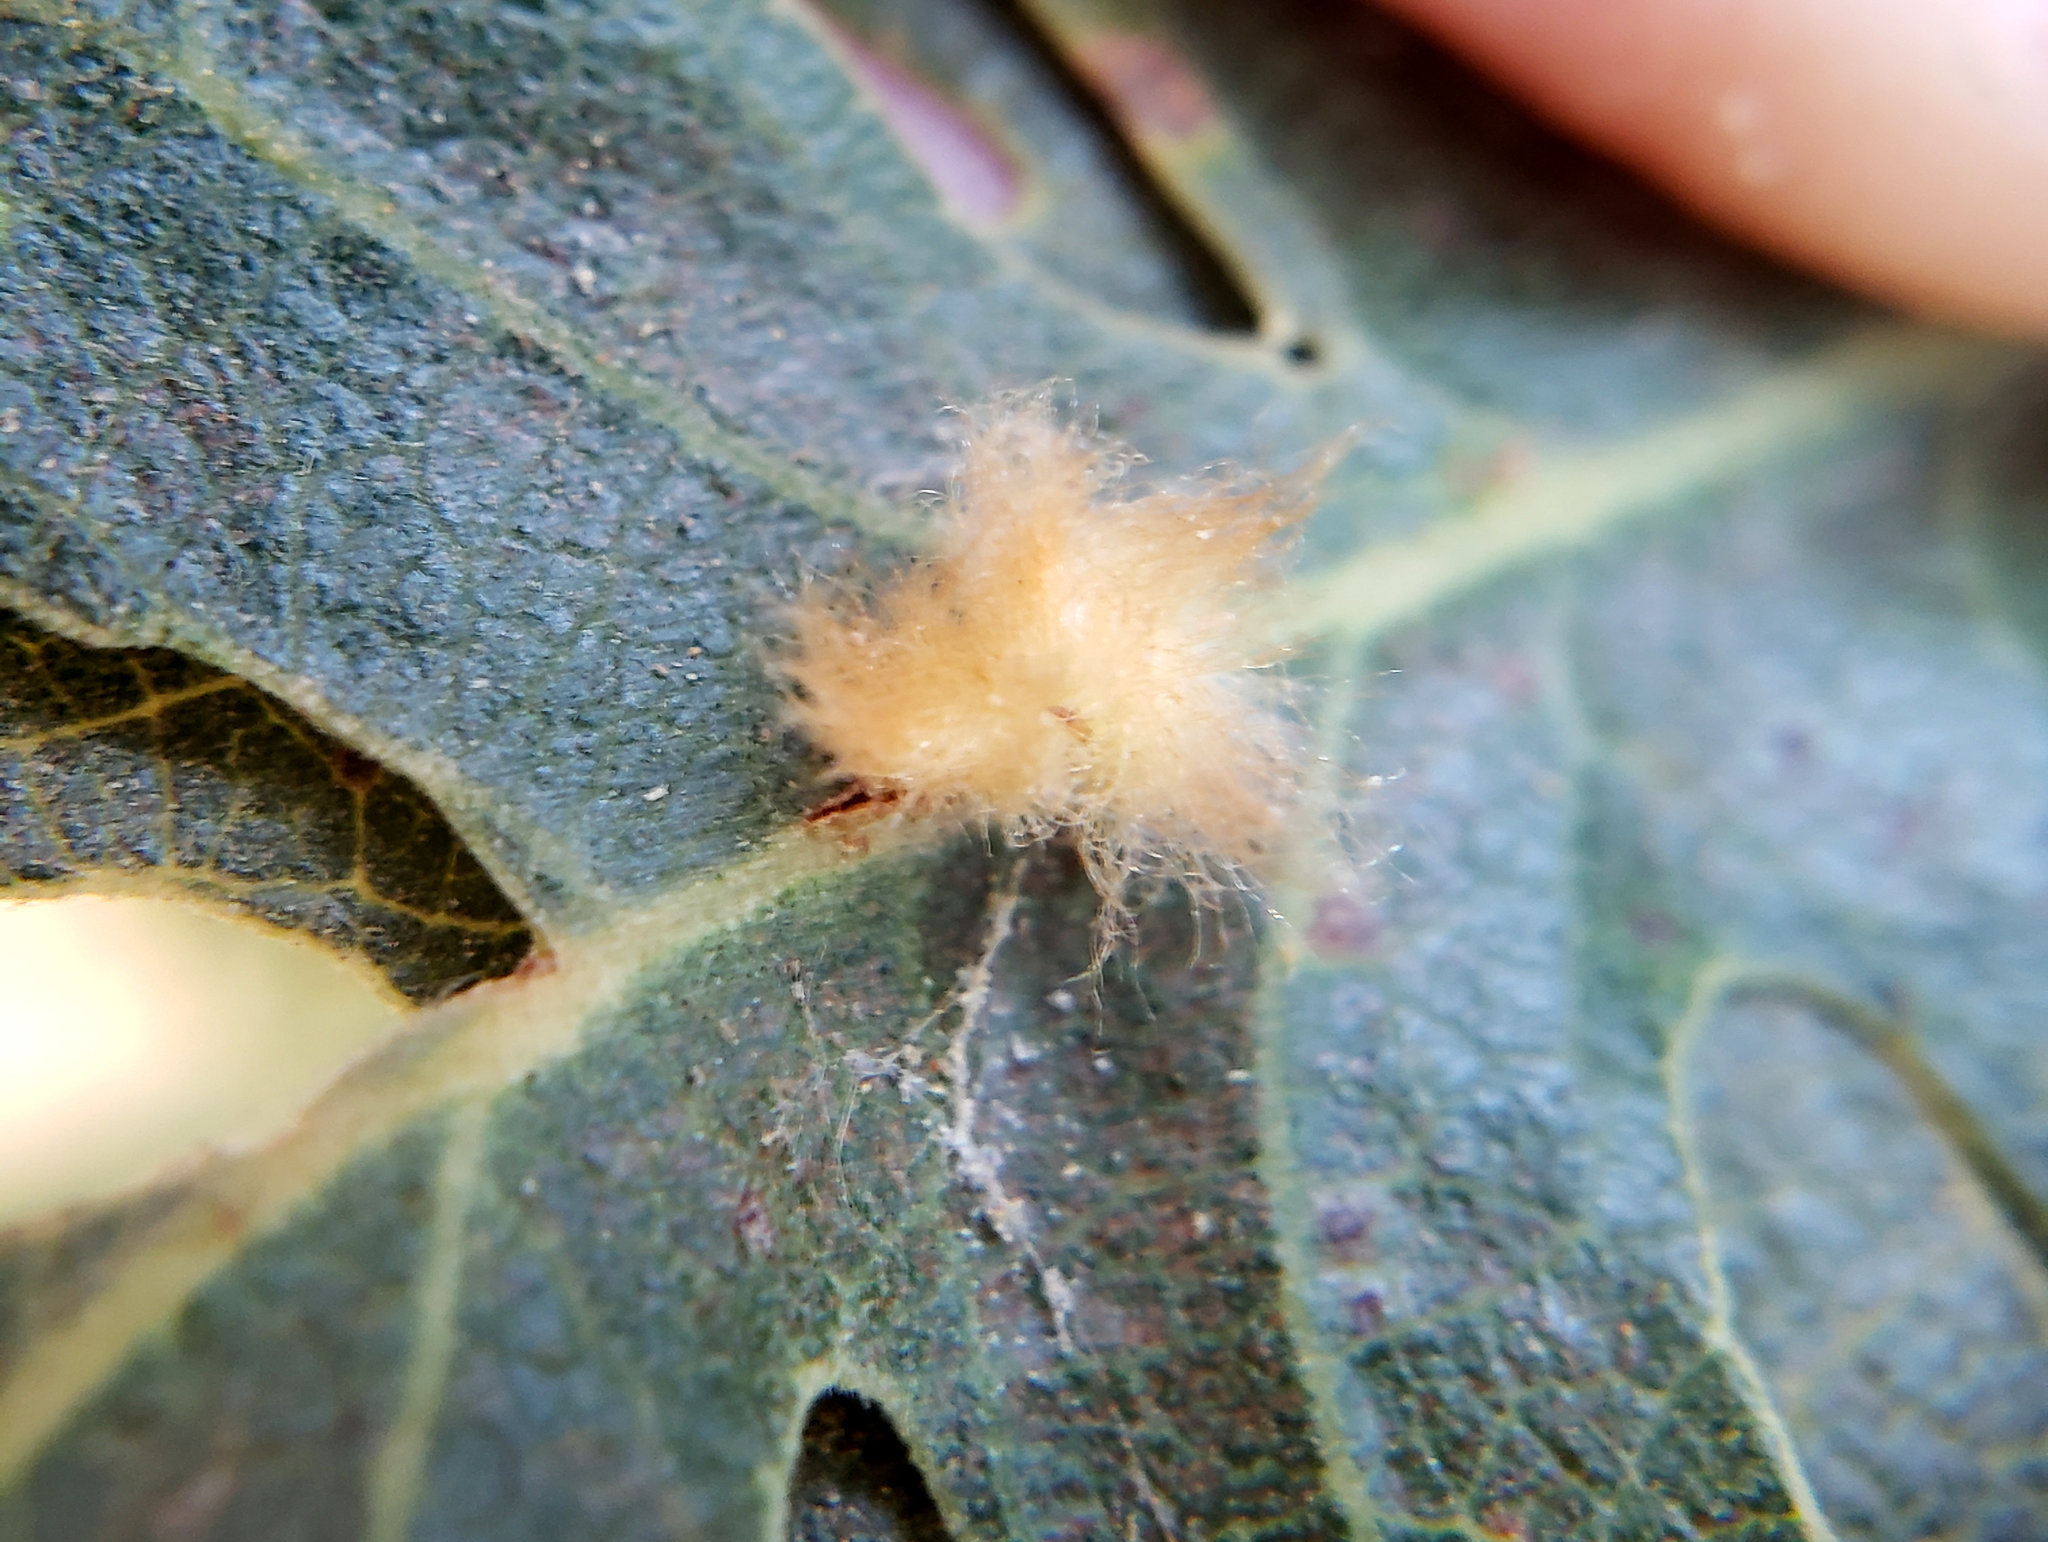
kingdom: Animalia
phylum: Arthropoda
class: Insecta
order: Hymenoptera
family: Cynipidae
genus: Andricus
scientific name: Andricus Druon fullawayi
